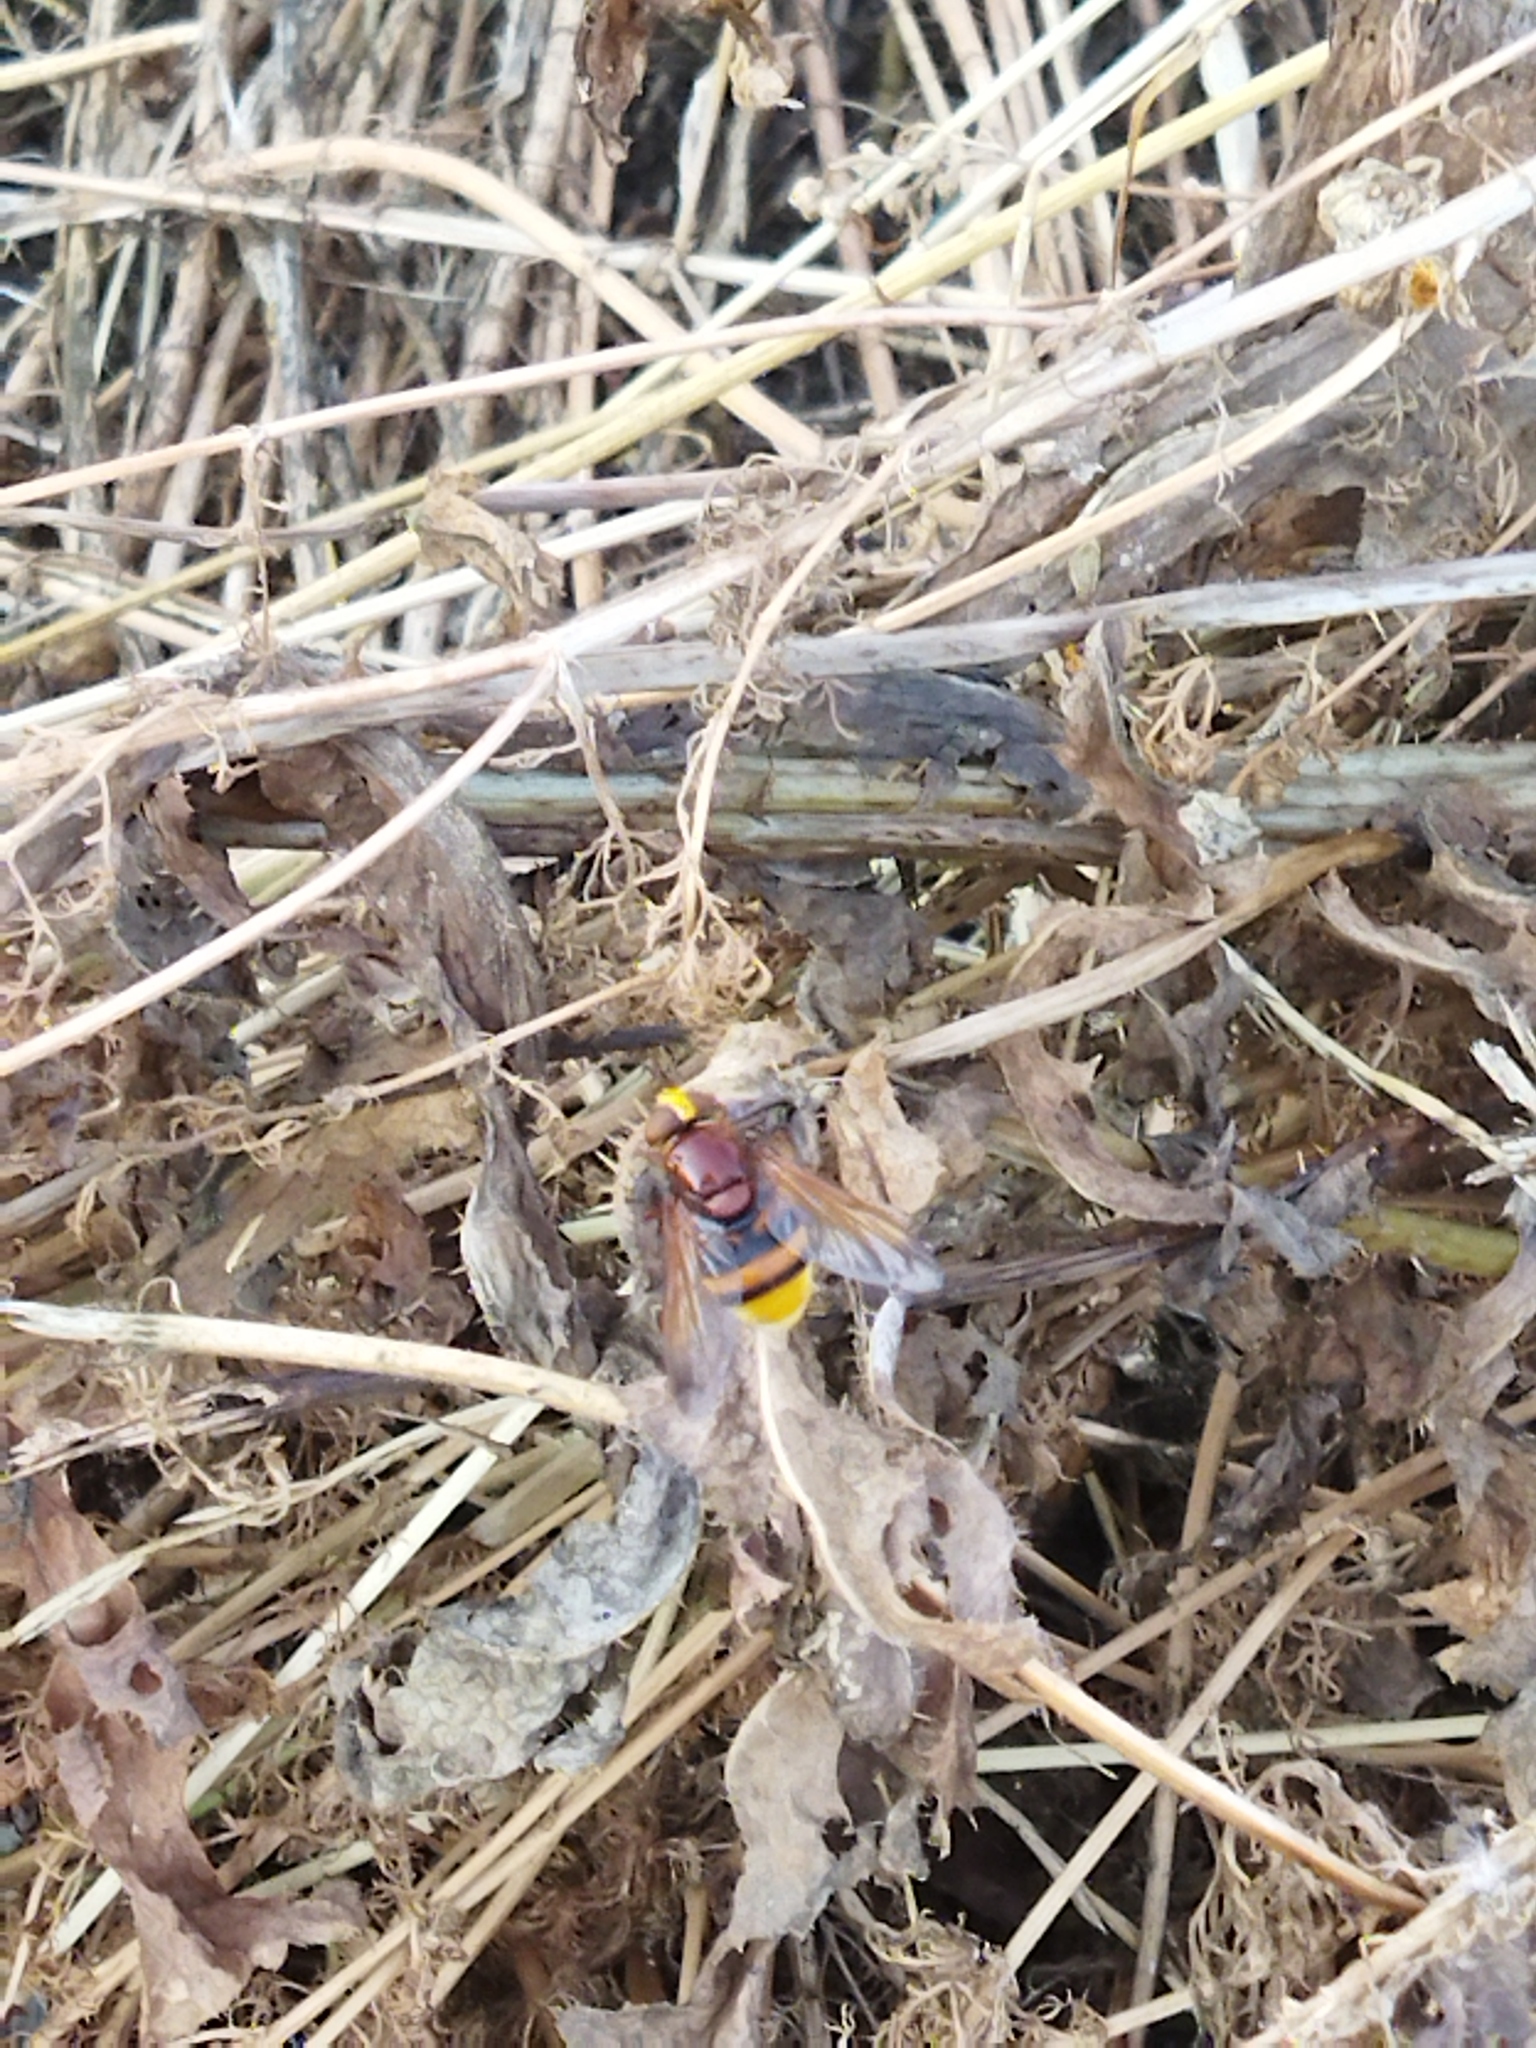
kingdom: Animalia
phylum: Arthropoda
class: Insecta
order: Diptera
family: Syrphidae
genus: Volucella
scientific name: Volucella zonaria
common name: Hornet hoverfly
